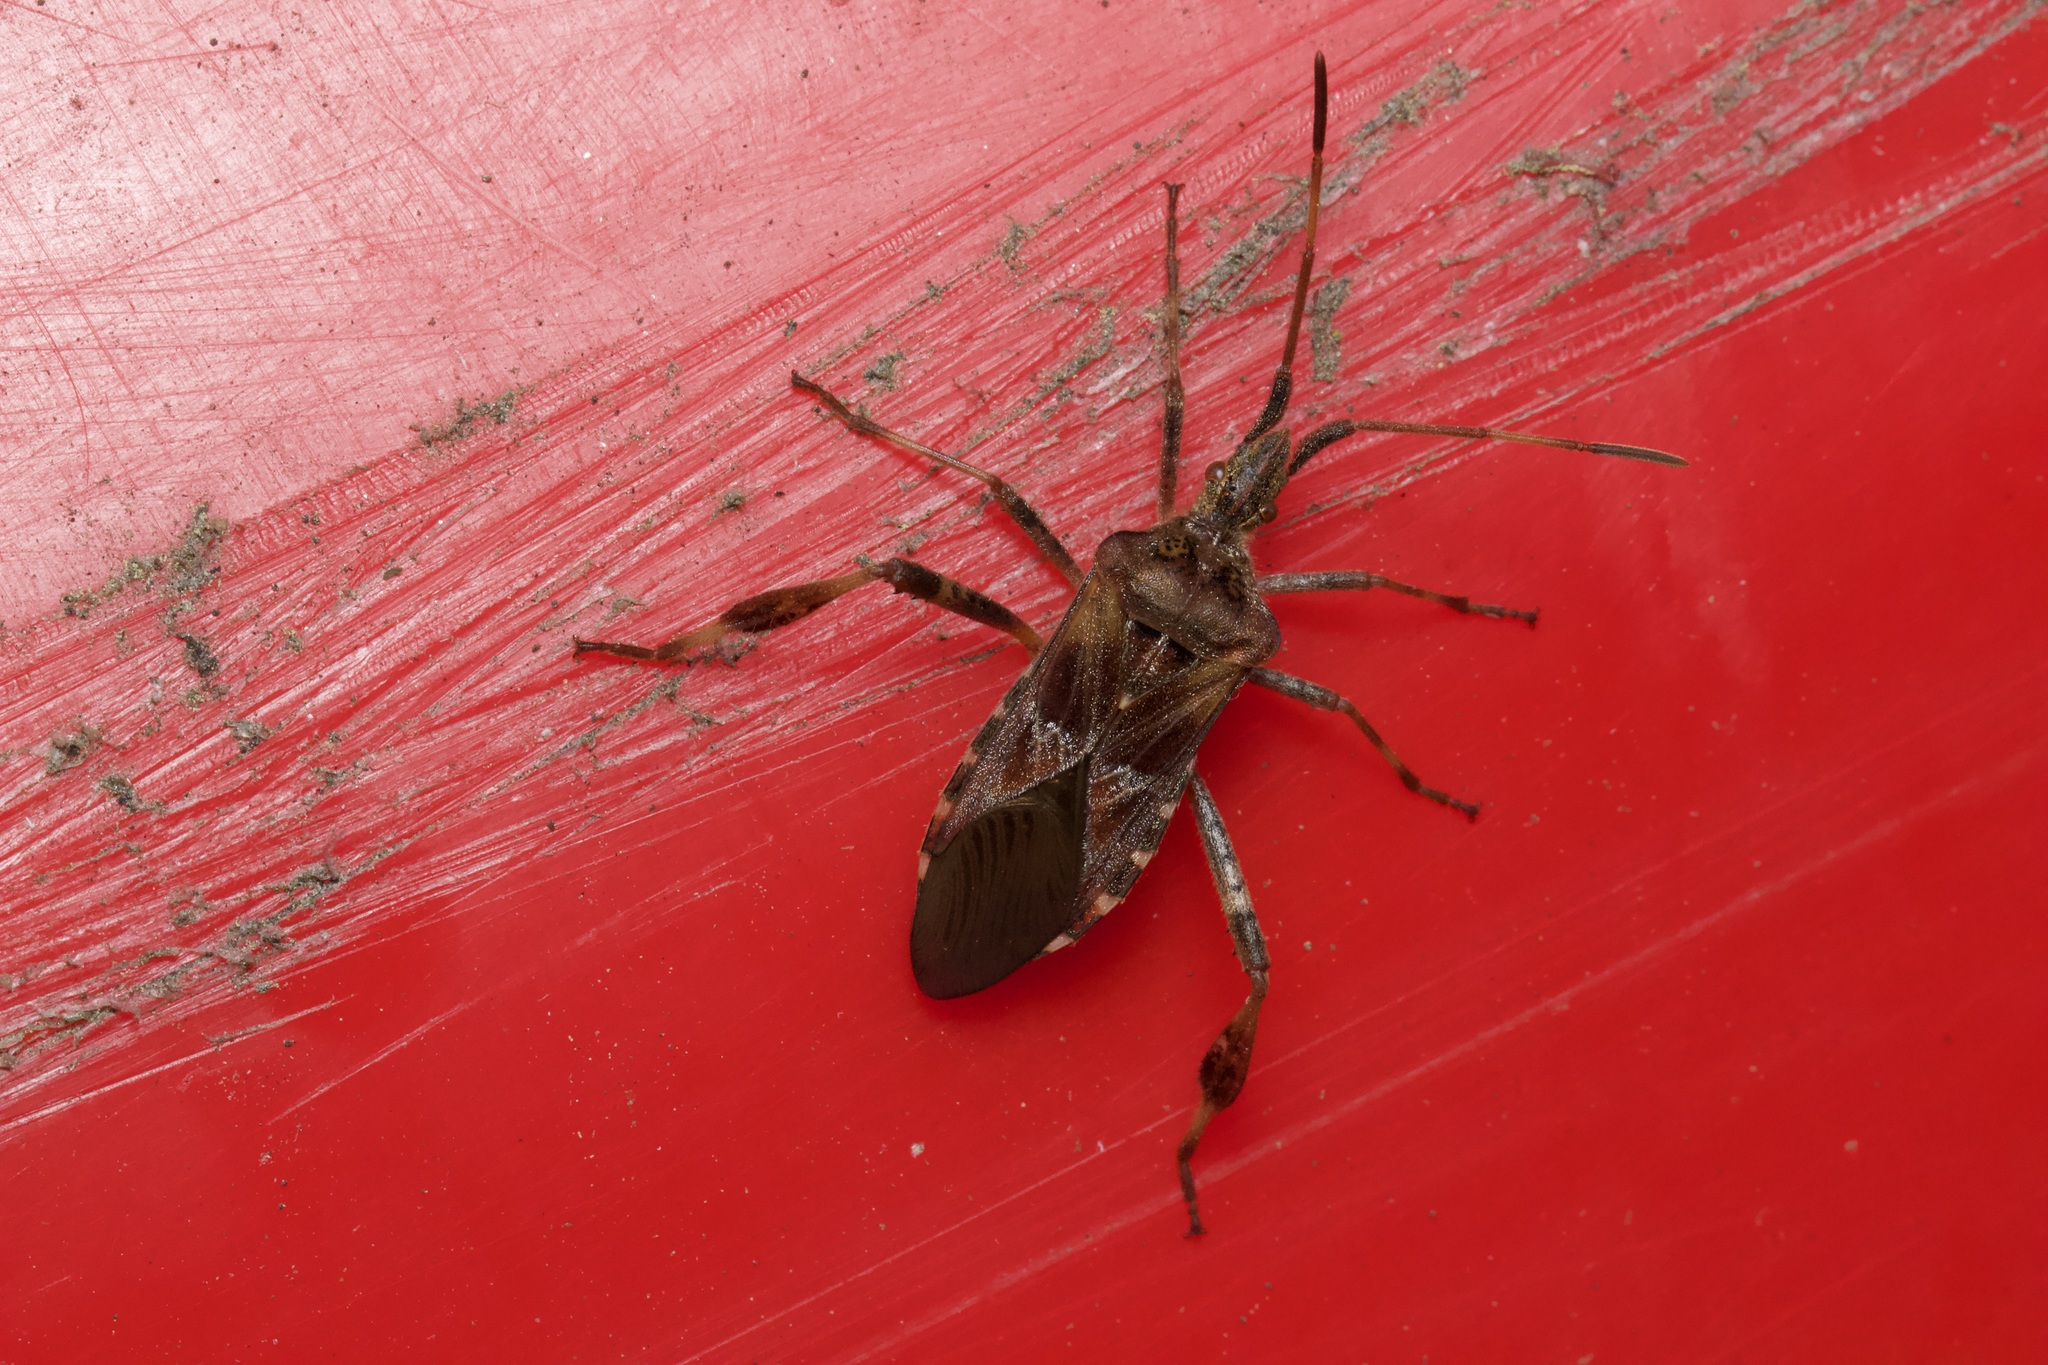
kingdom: Animalia
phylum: Arthropoda
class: Insecta
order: Hemiptera
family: Coreidae
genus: Leptoglossus
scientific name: Leptoglossus occidentalis
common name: Western conifer-seed bug
